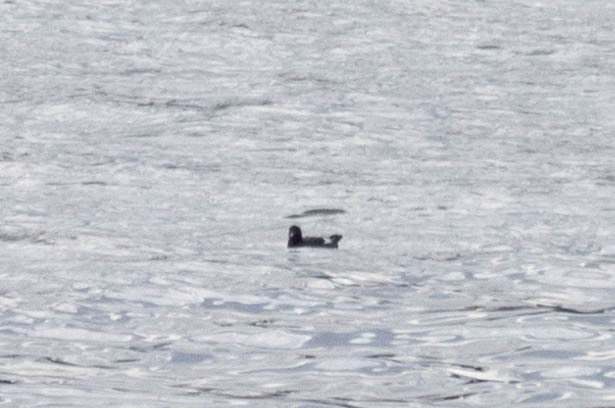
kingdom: Animalia
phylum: Chordata
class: Aves
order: Charadriiformes
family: Alcidae
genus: Cepphus
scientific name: Cepphus columba
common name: Pigeon guillemot
